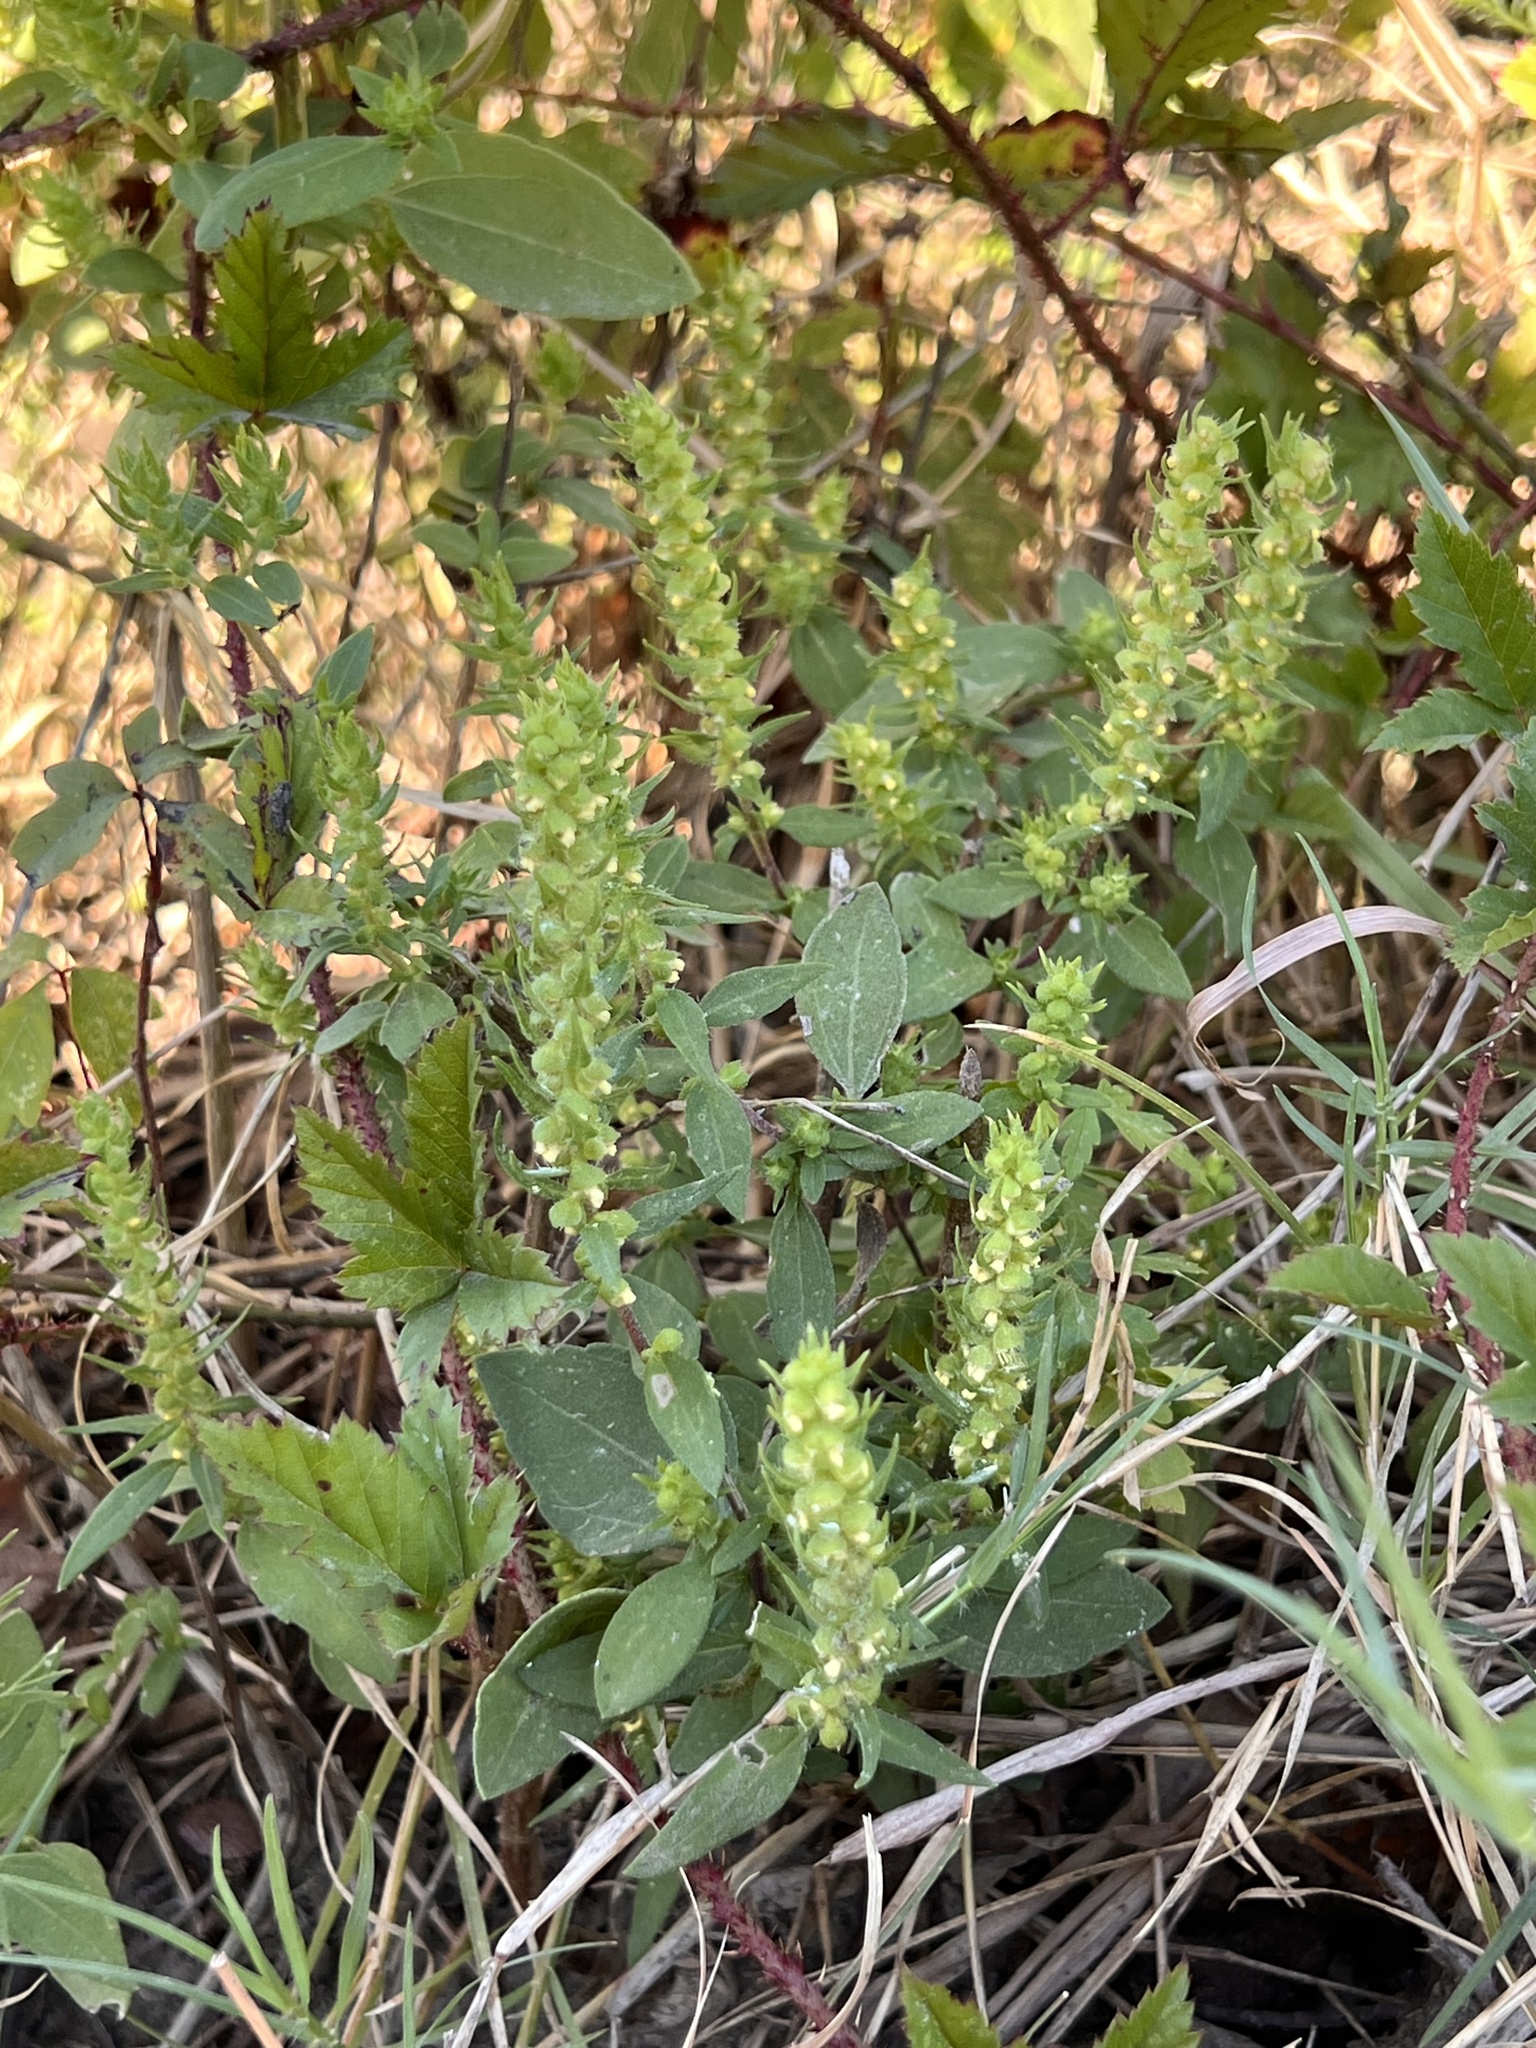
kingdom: Plantae
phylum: Tracheophyta
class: Magnoliopsida
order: Asterales
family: Asteraceae
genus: Iva
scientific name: Iva annua
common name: Marsh-elder
